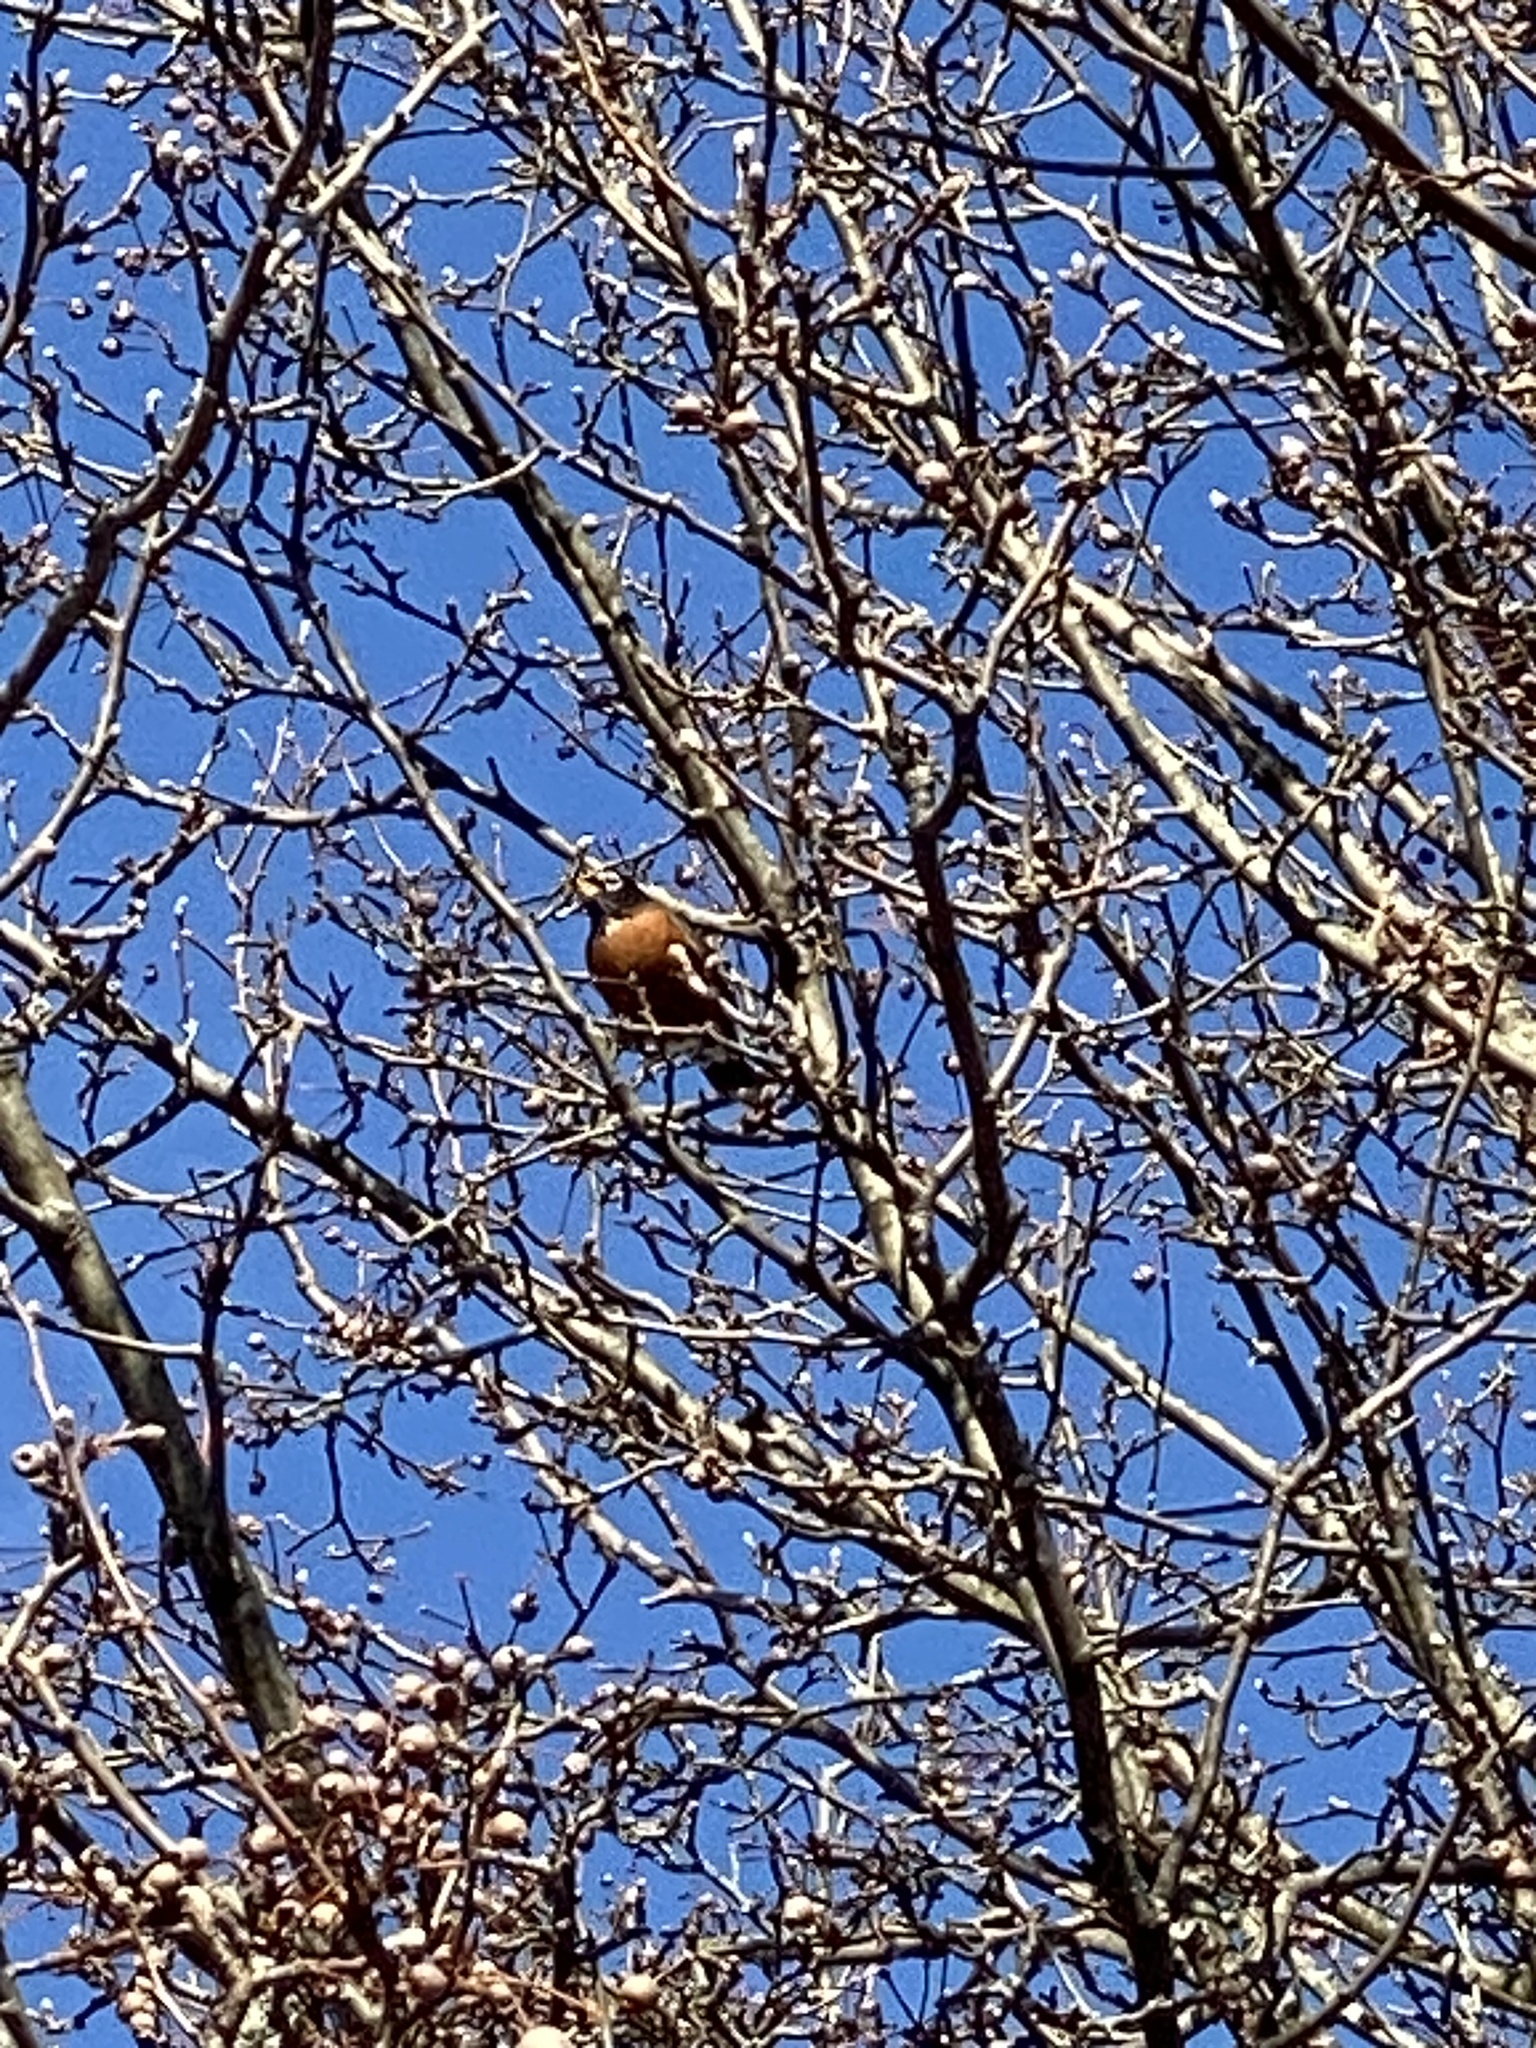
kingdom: Animalia
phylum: Chordata
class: Aves
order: Passeriformes
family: Turdidae
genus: Turdus
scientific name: Turdus migratorius
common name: American robin
